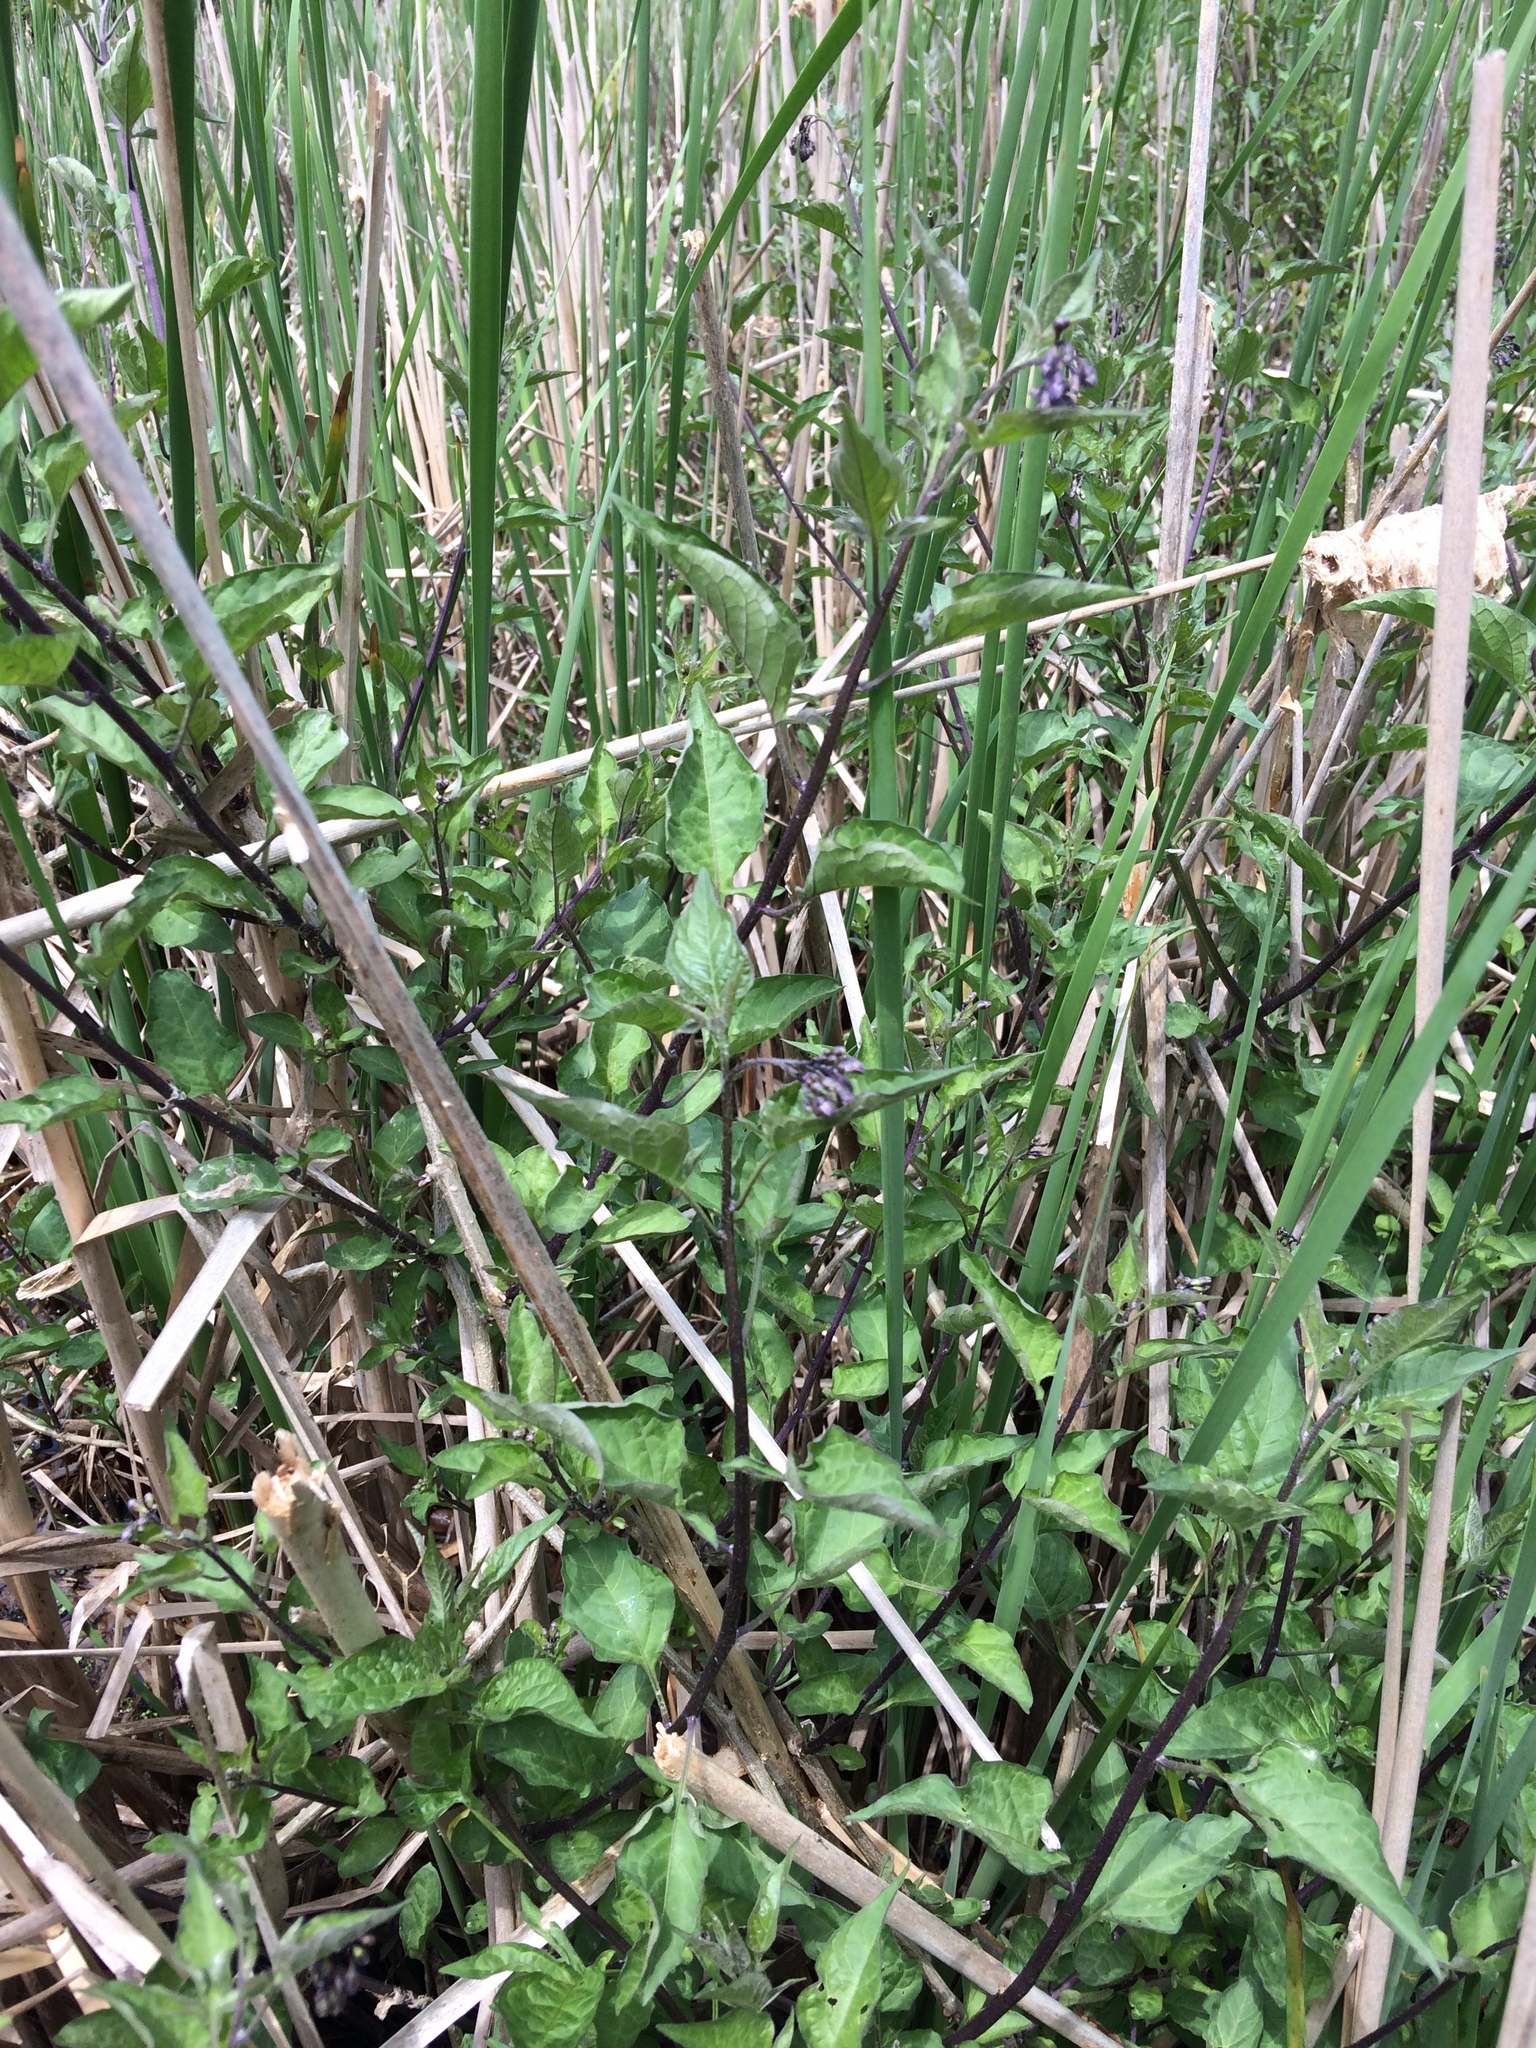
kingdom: Plantae
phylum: Tracheophyta
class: Magnoliopsida
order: Solanales
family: Solanaceae
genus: Solanum
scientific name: Solanum dulcamara
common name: Climbing nightshade
